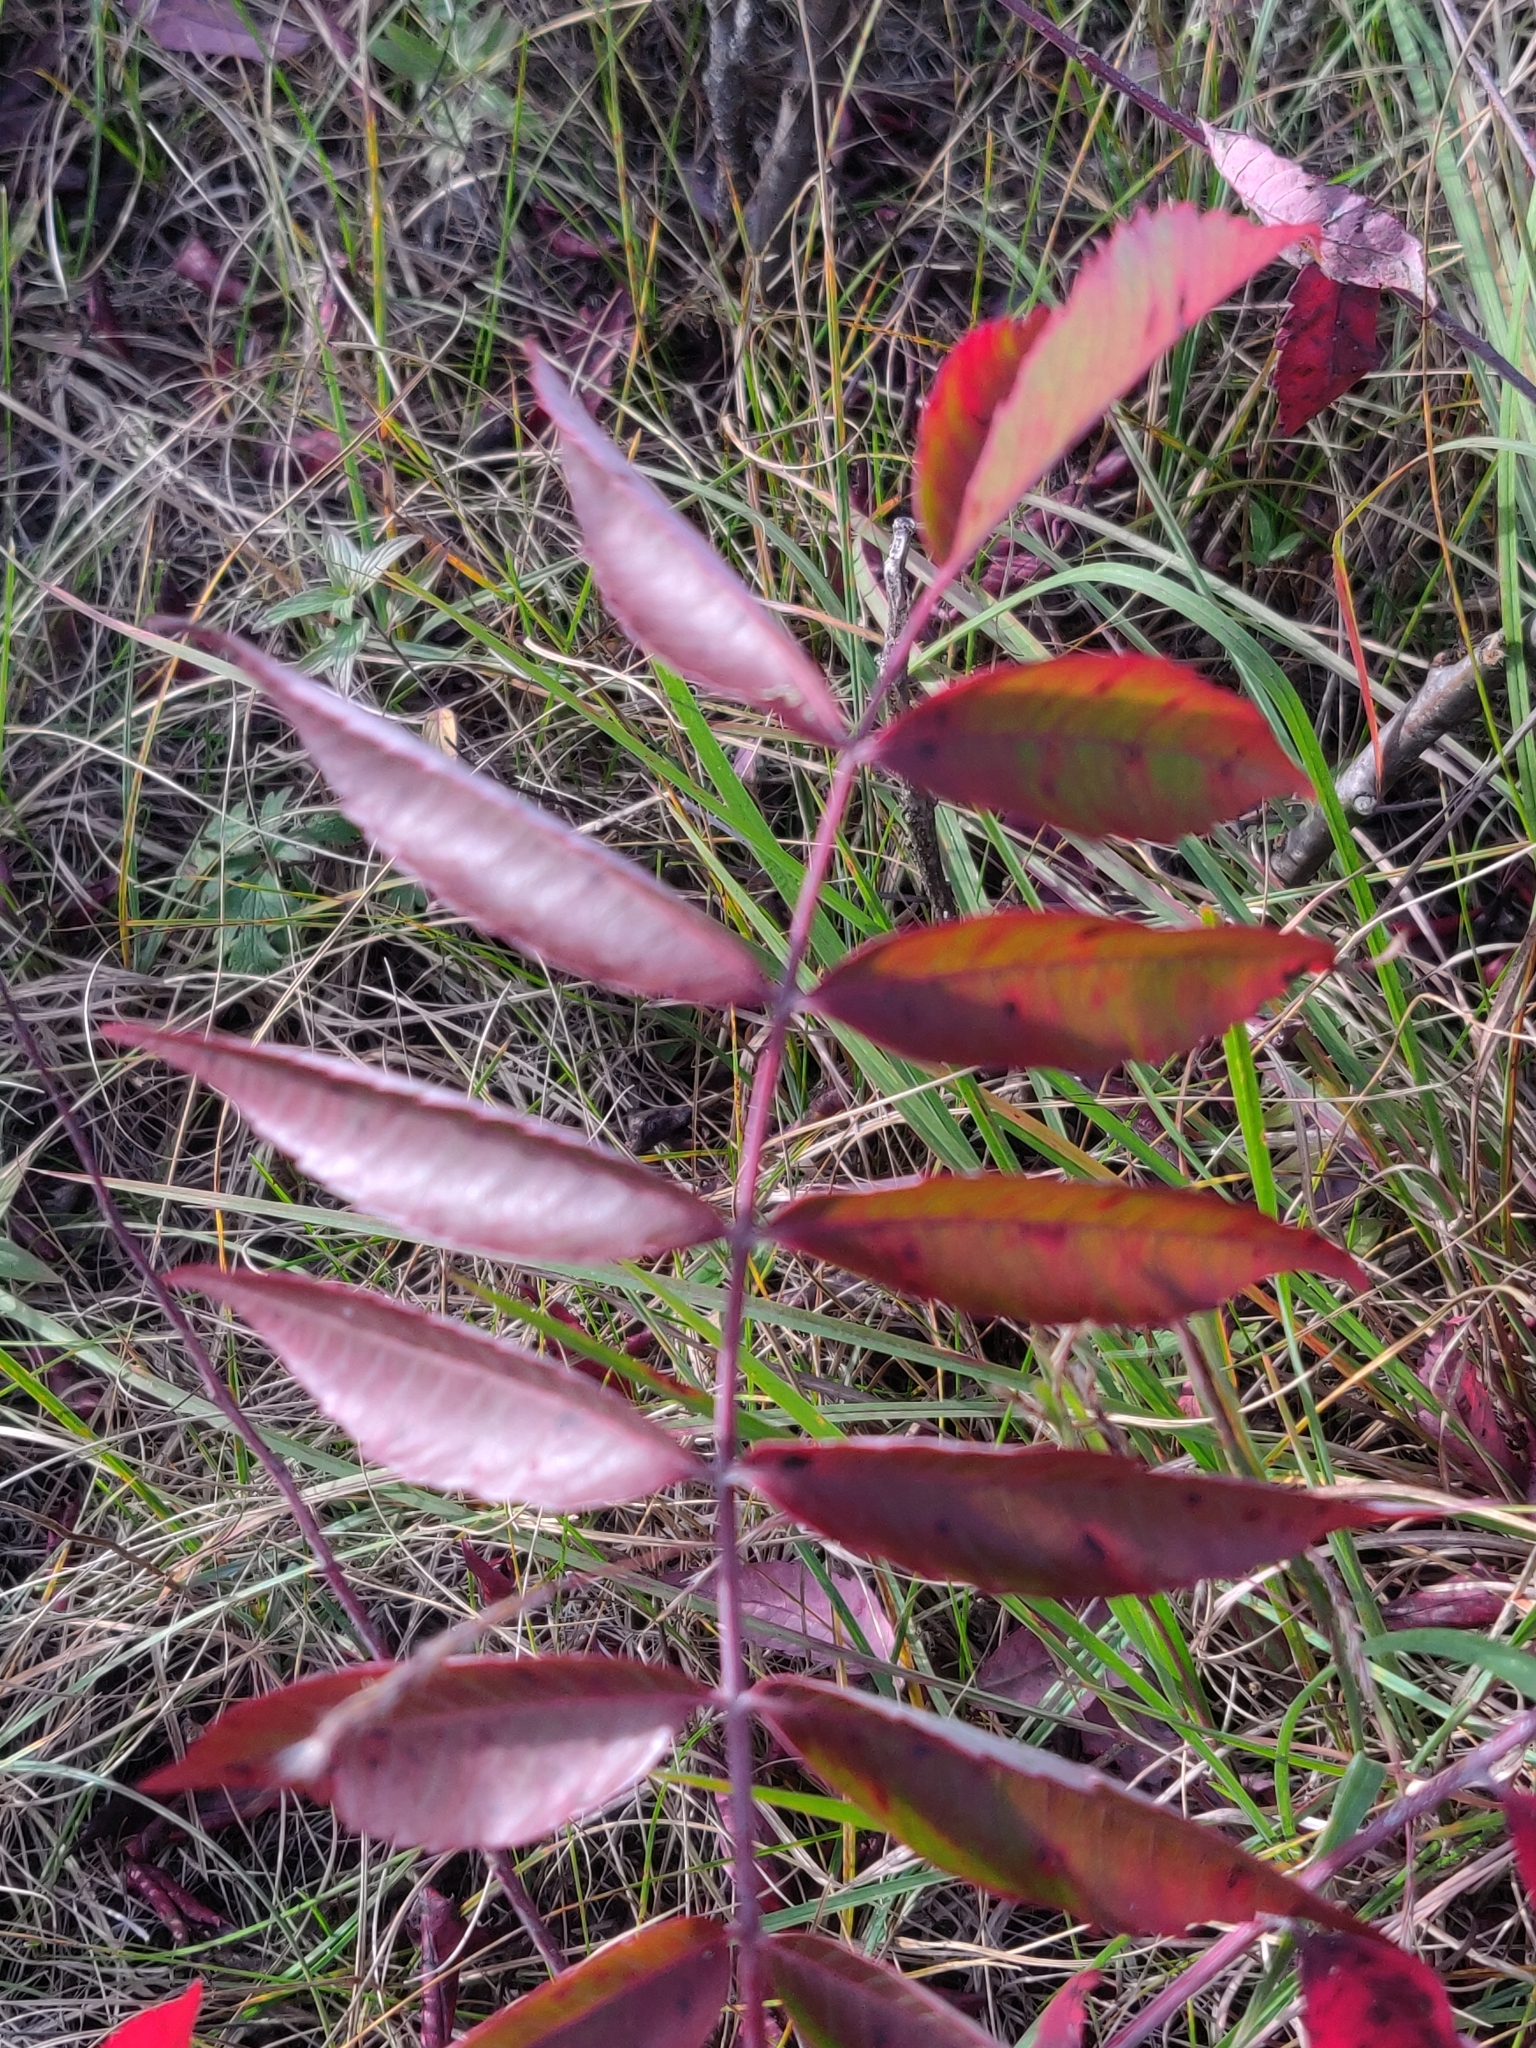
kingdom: Plantae
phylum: Tracheophyta
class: Magnoliopsida
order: Sapindales
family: Anacardiaceae
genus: Rhus
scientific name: Rhus glabra
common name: Scarlet sumac
